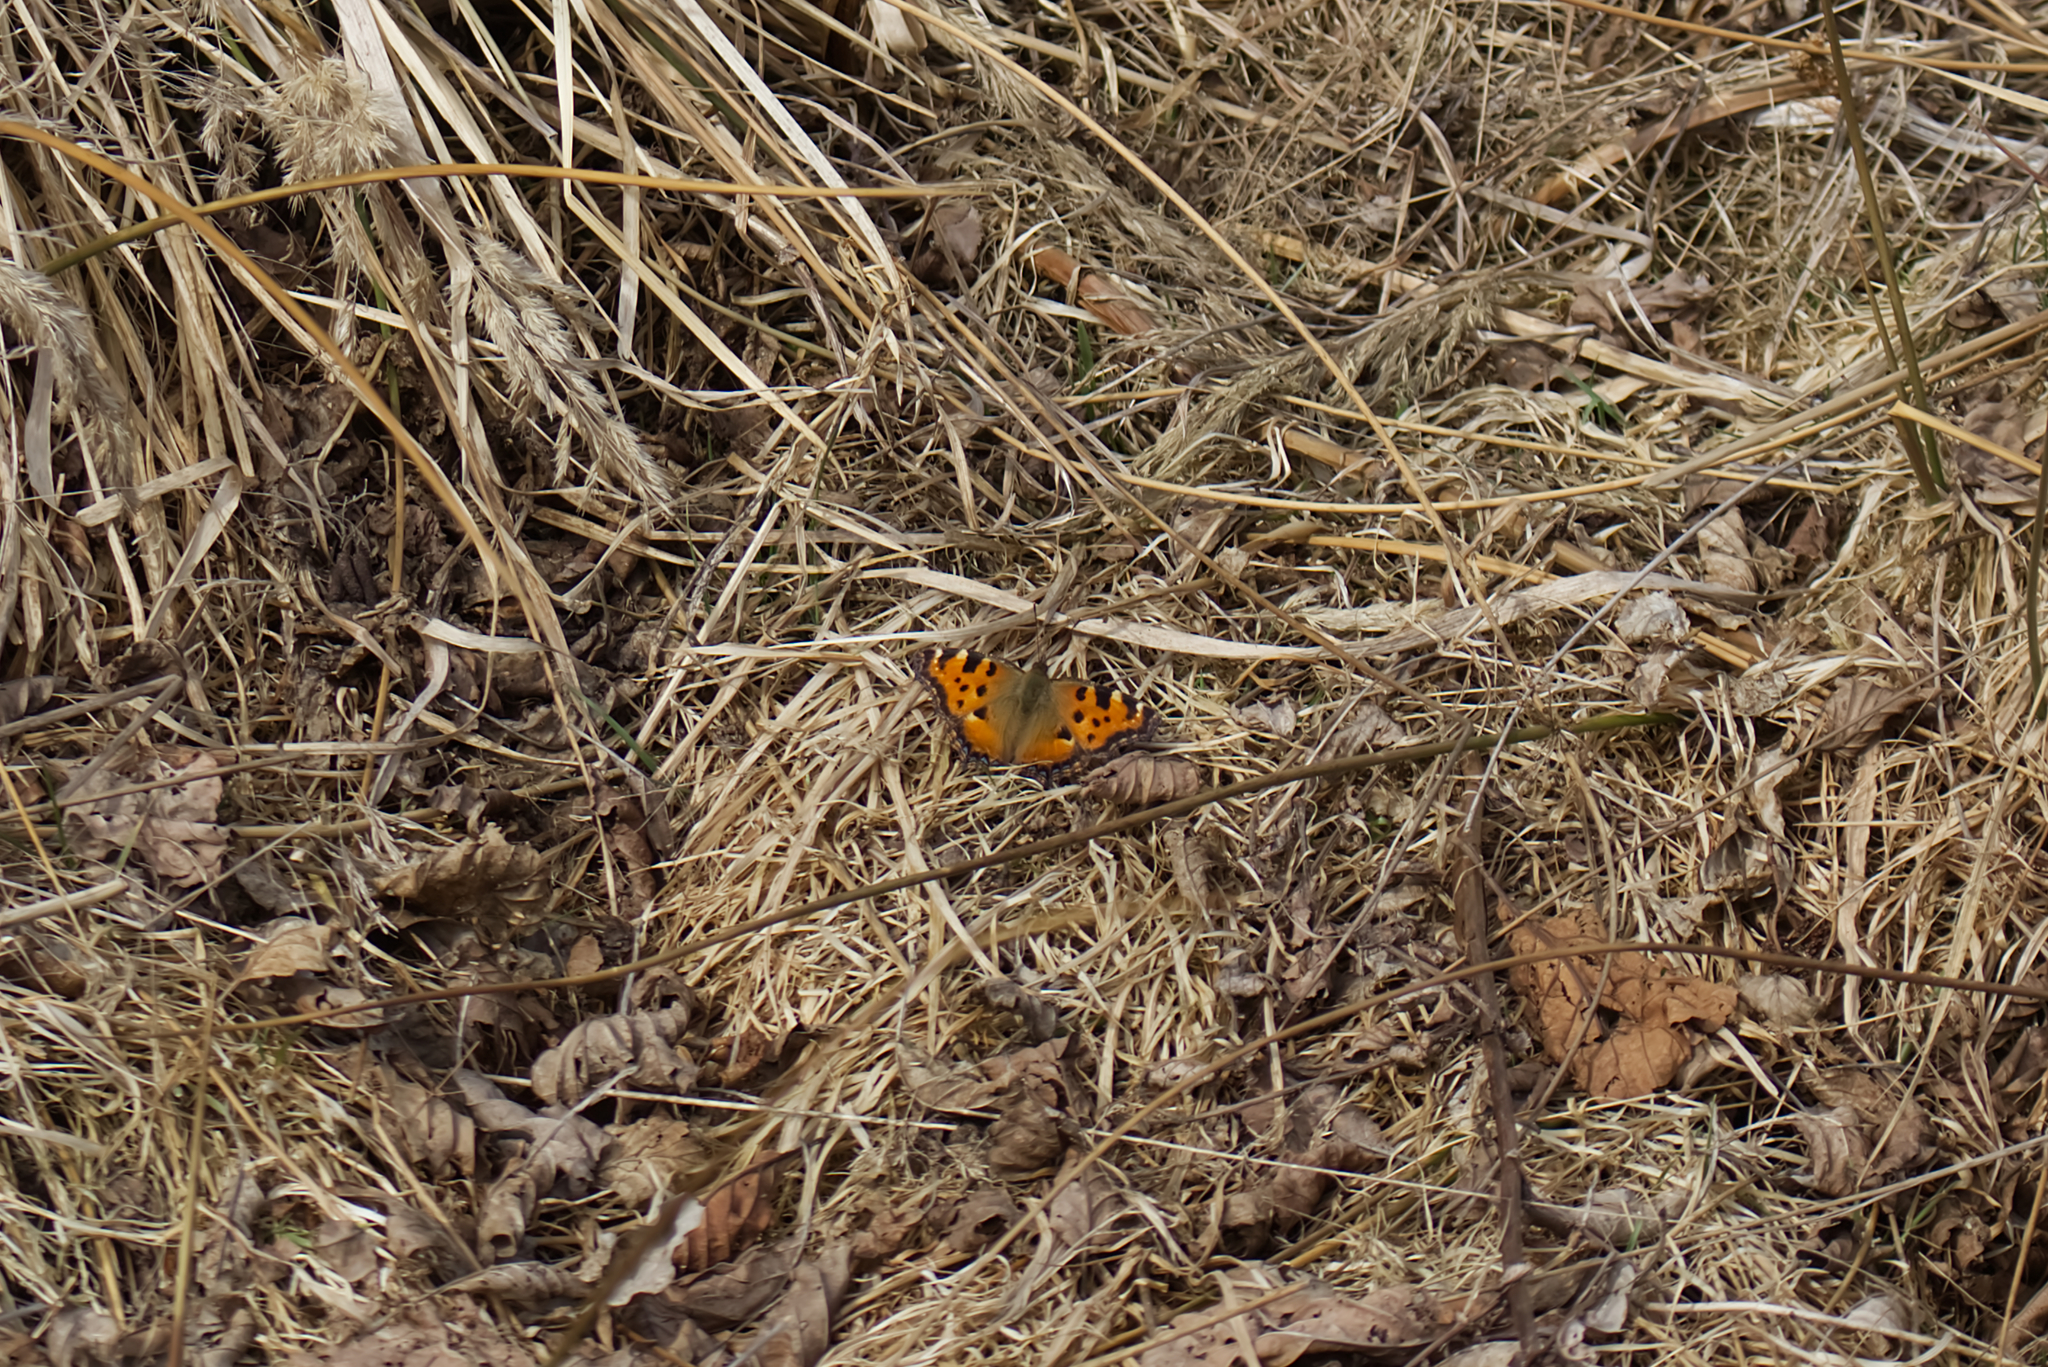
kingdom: Animalia
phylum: Arthropoda
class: Insecta
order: Lepidoptera
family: Nymphalidae
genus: Nymphalis
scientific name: Nymphalis polychloros
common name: Large tortoiseshell
